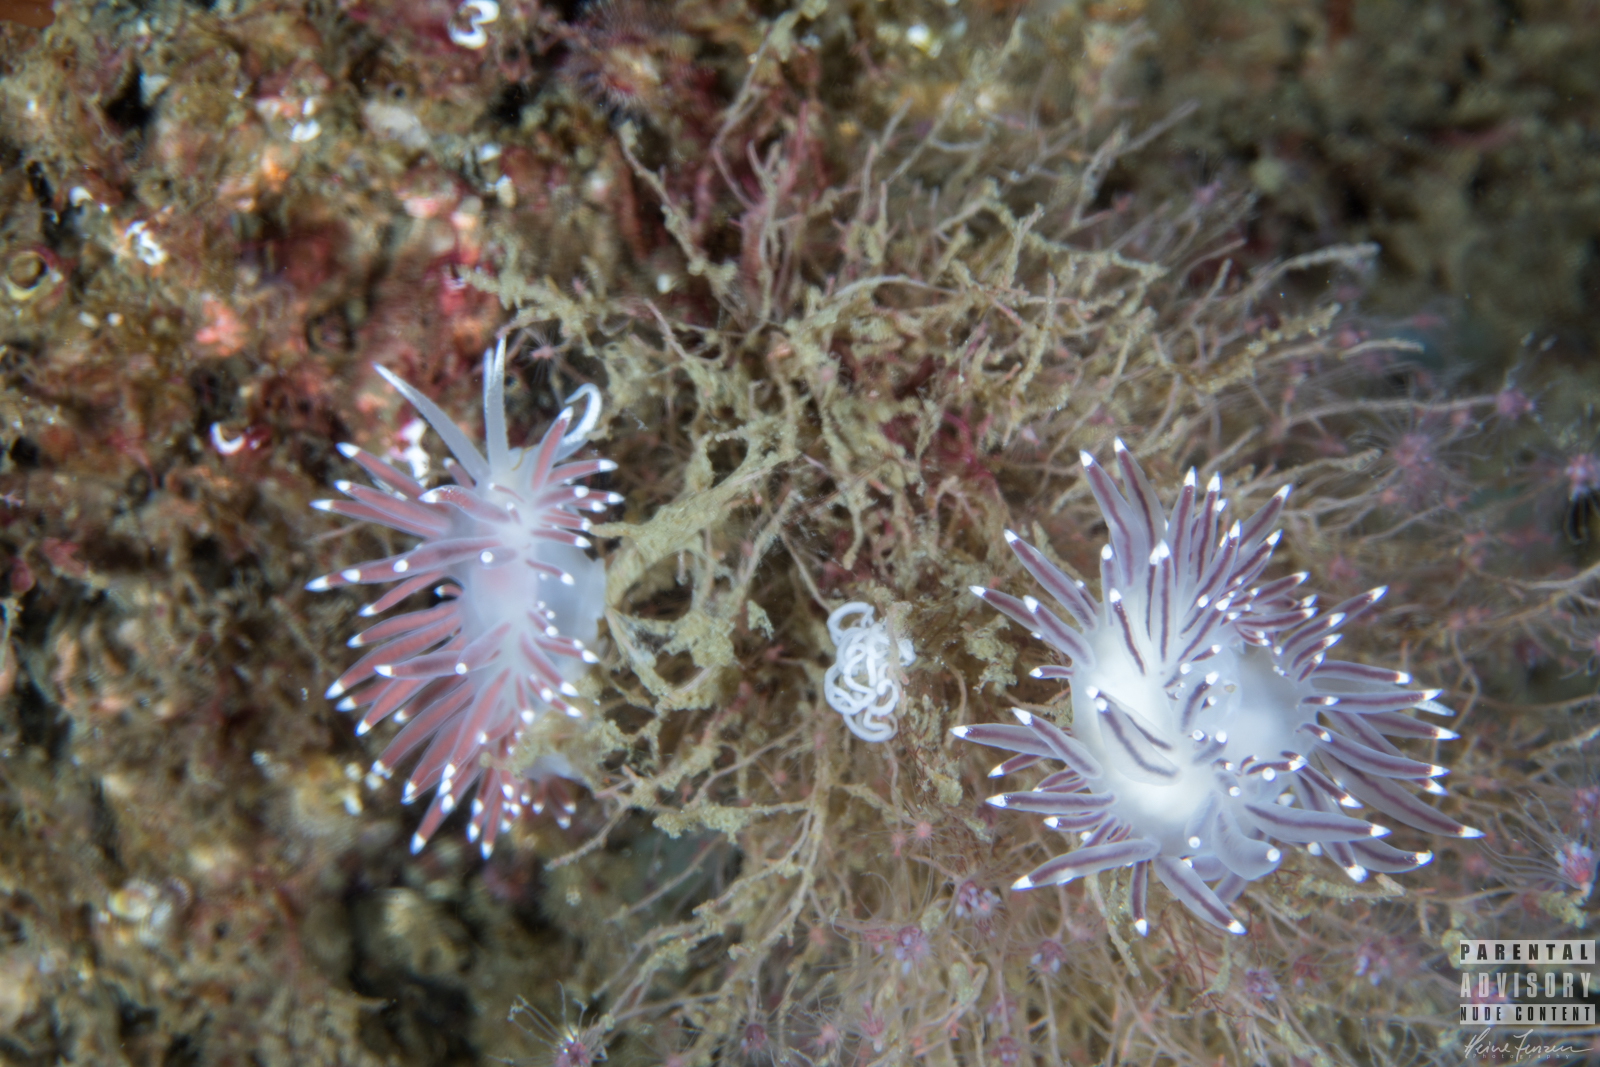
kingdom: Animalia
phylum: Mollusca
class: Gastropoda
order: Nudibranchia
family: Coryphellidae
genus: Coryphella
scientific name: Coryphella browni
